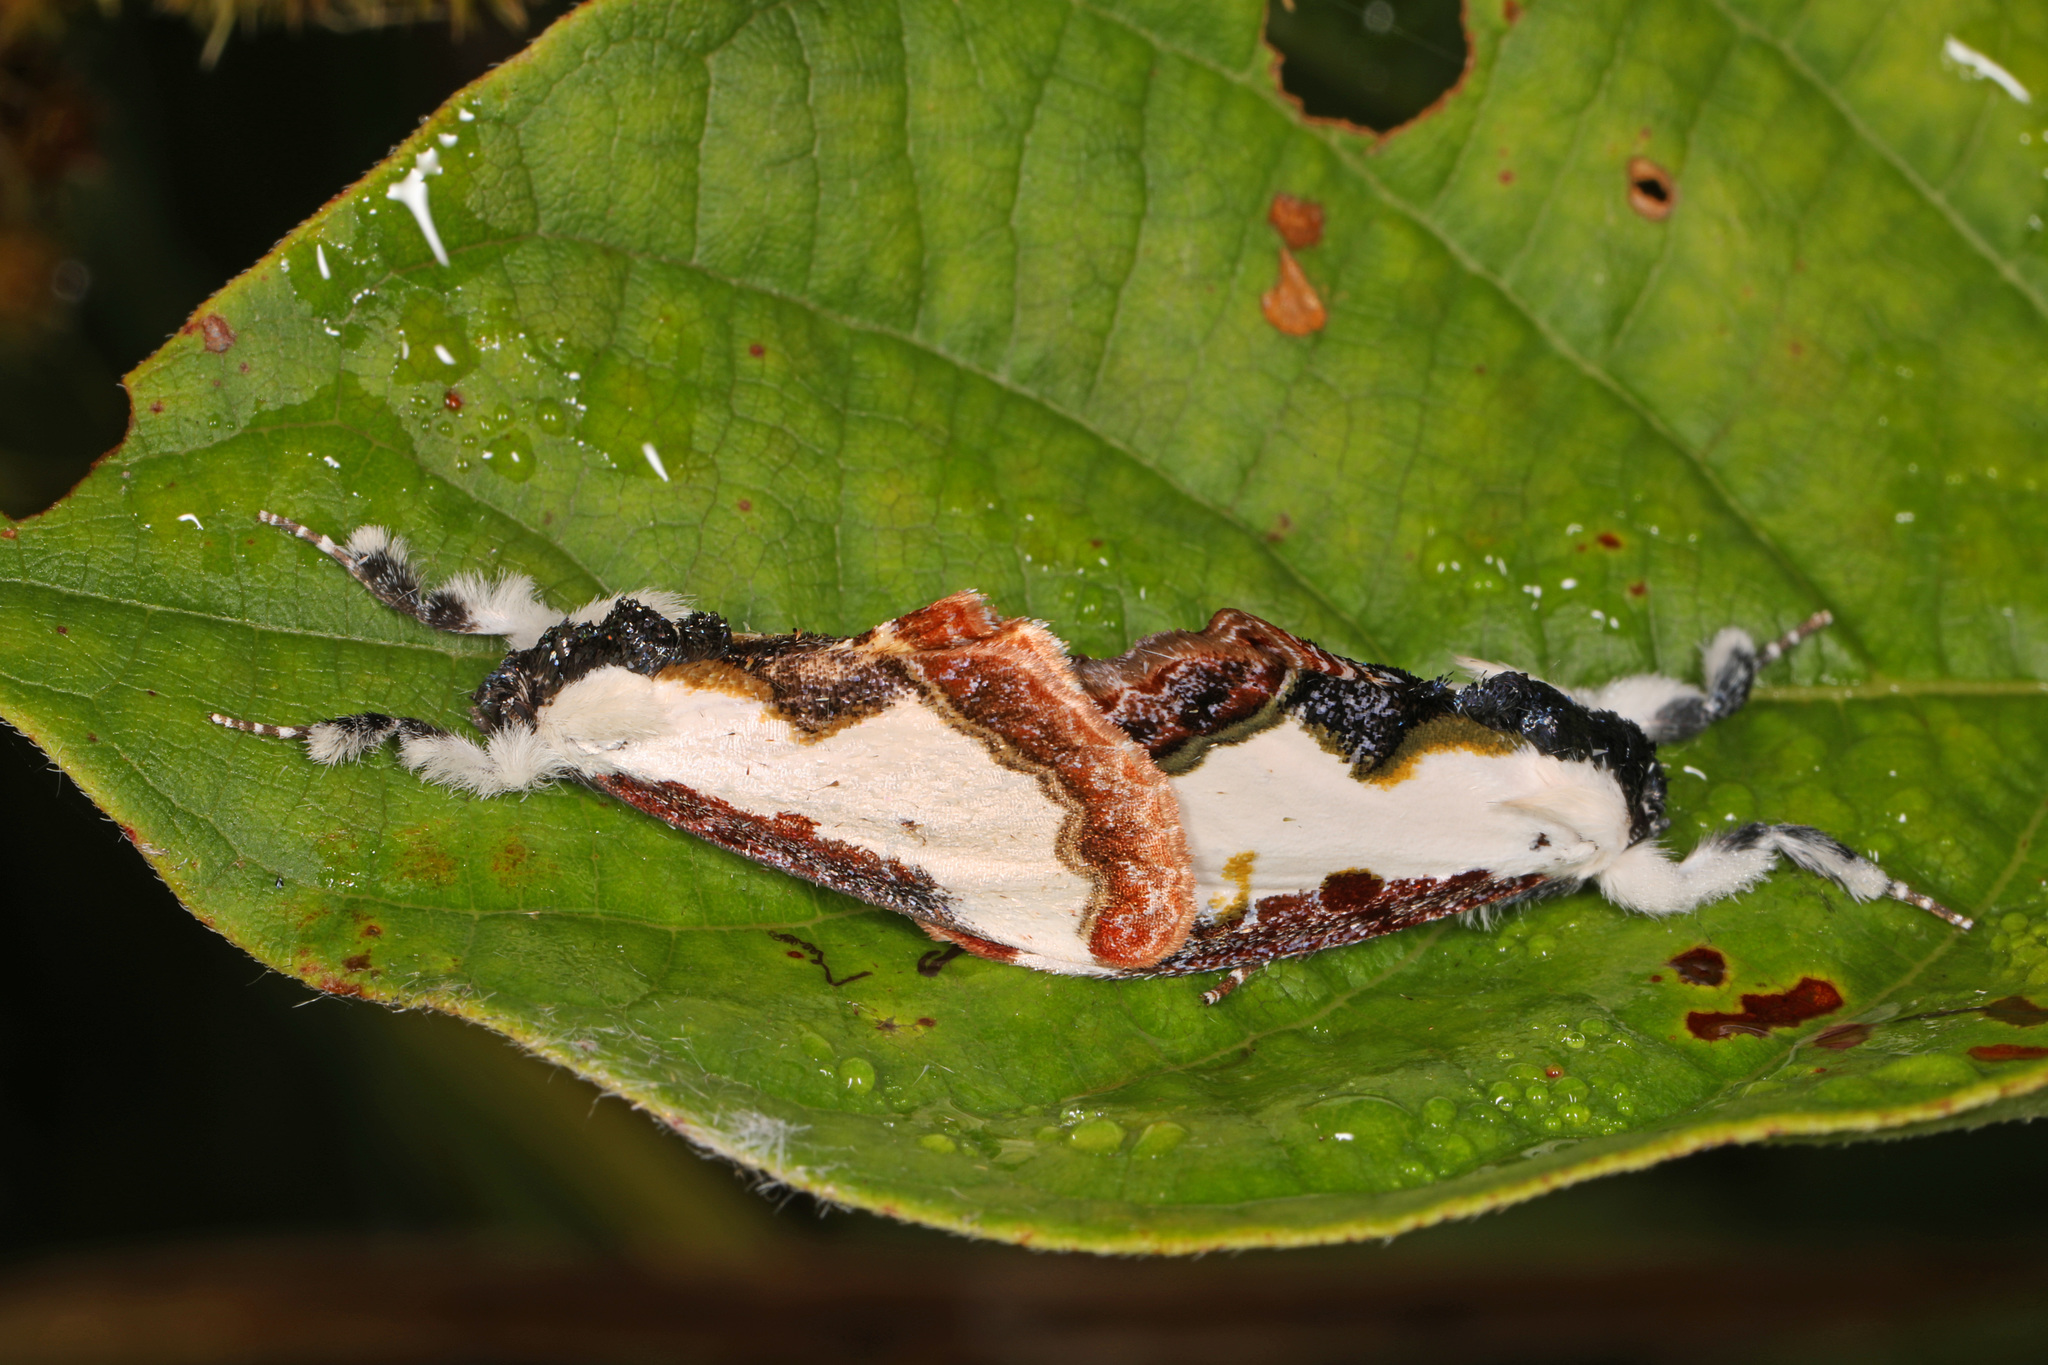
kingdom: Animalia
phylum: Arthropoda
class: Insecta
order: Lepidoptera
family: Noctuidae
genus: Eudryas
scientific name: Eudryas unio
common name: Pearly wood-nymph
